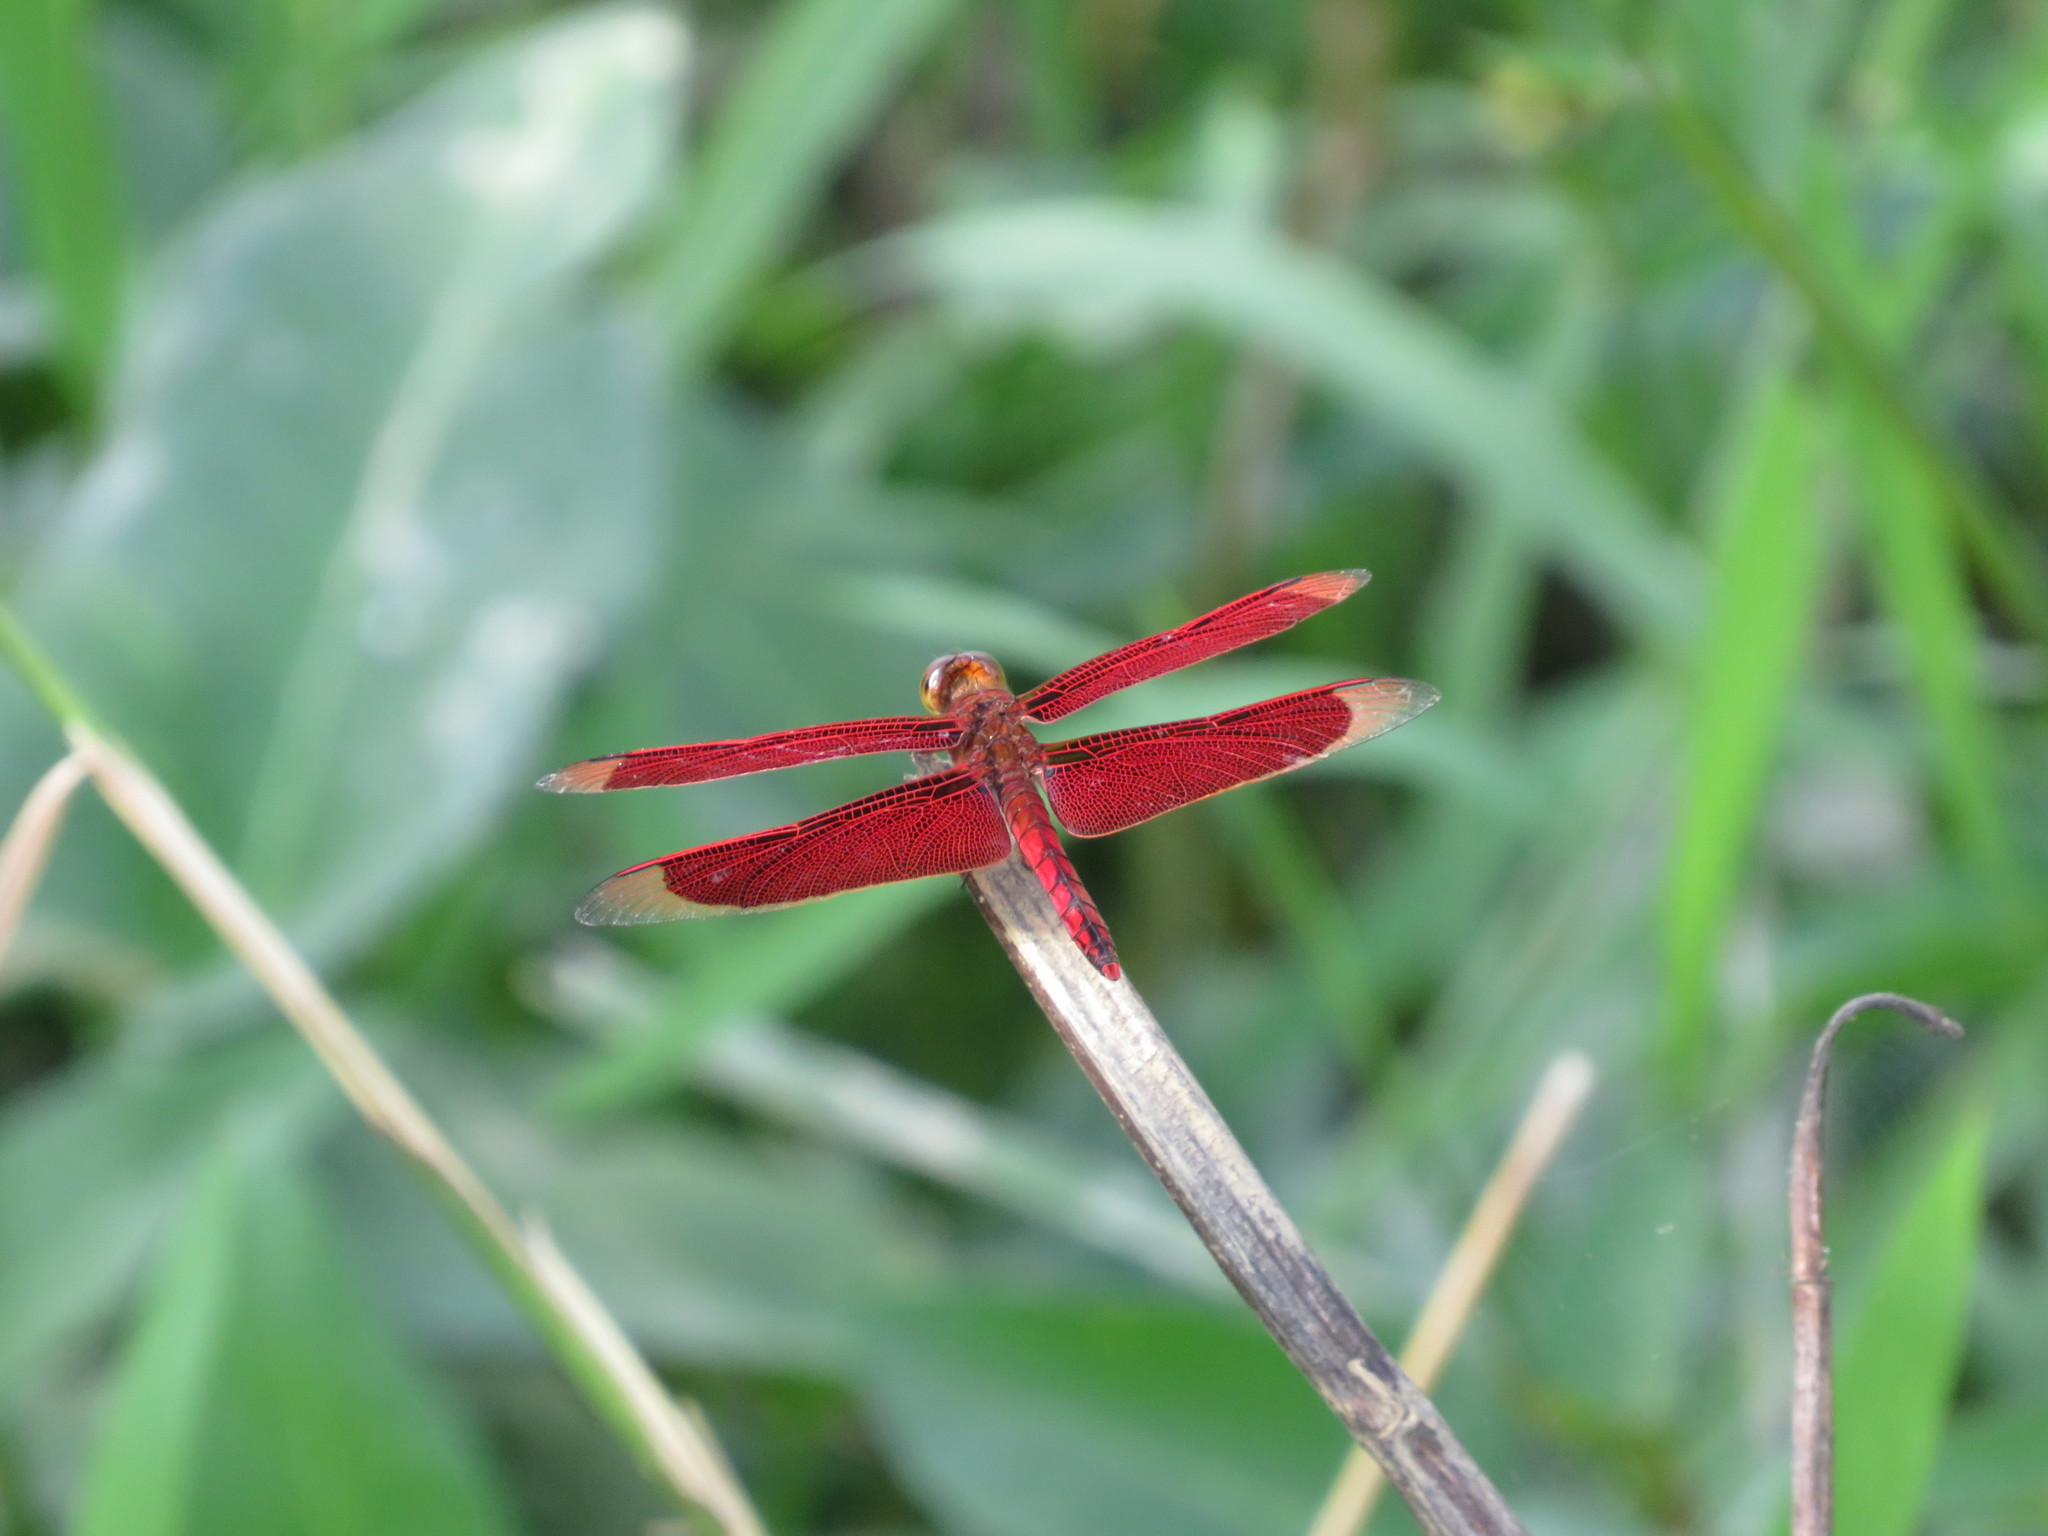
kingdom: Animalia
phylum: Arthropoda
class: Insecta
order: Odonata
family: Libellulidae
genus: Neurothemis
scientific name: Neurothemis ramburii
